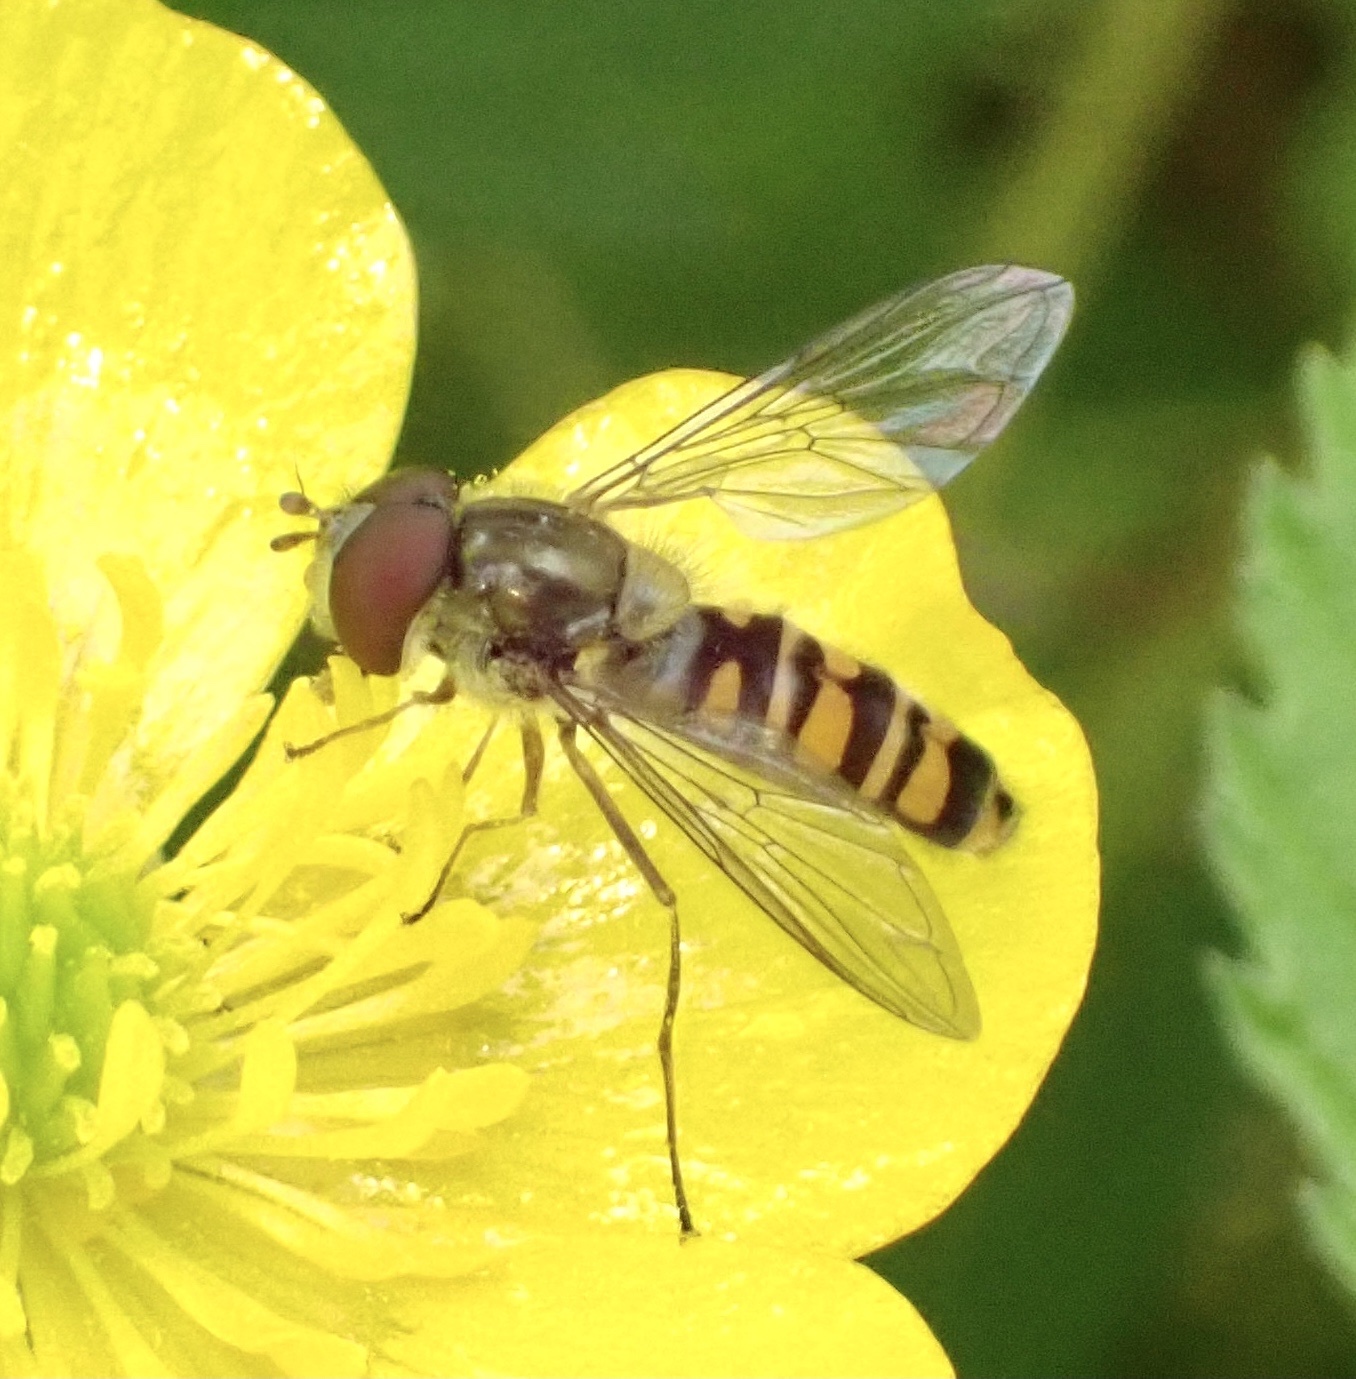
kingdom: Animalia
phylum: Arthropoda
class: Insecta
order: Diptera
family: Syrphidae
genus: Episyrphus
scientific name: Episyrphus balteatus
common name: Marmalade hoverfly
